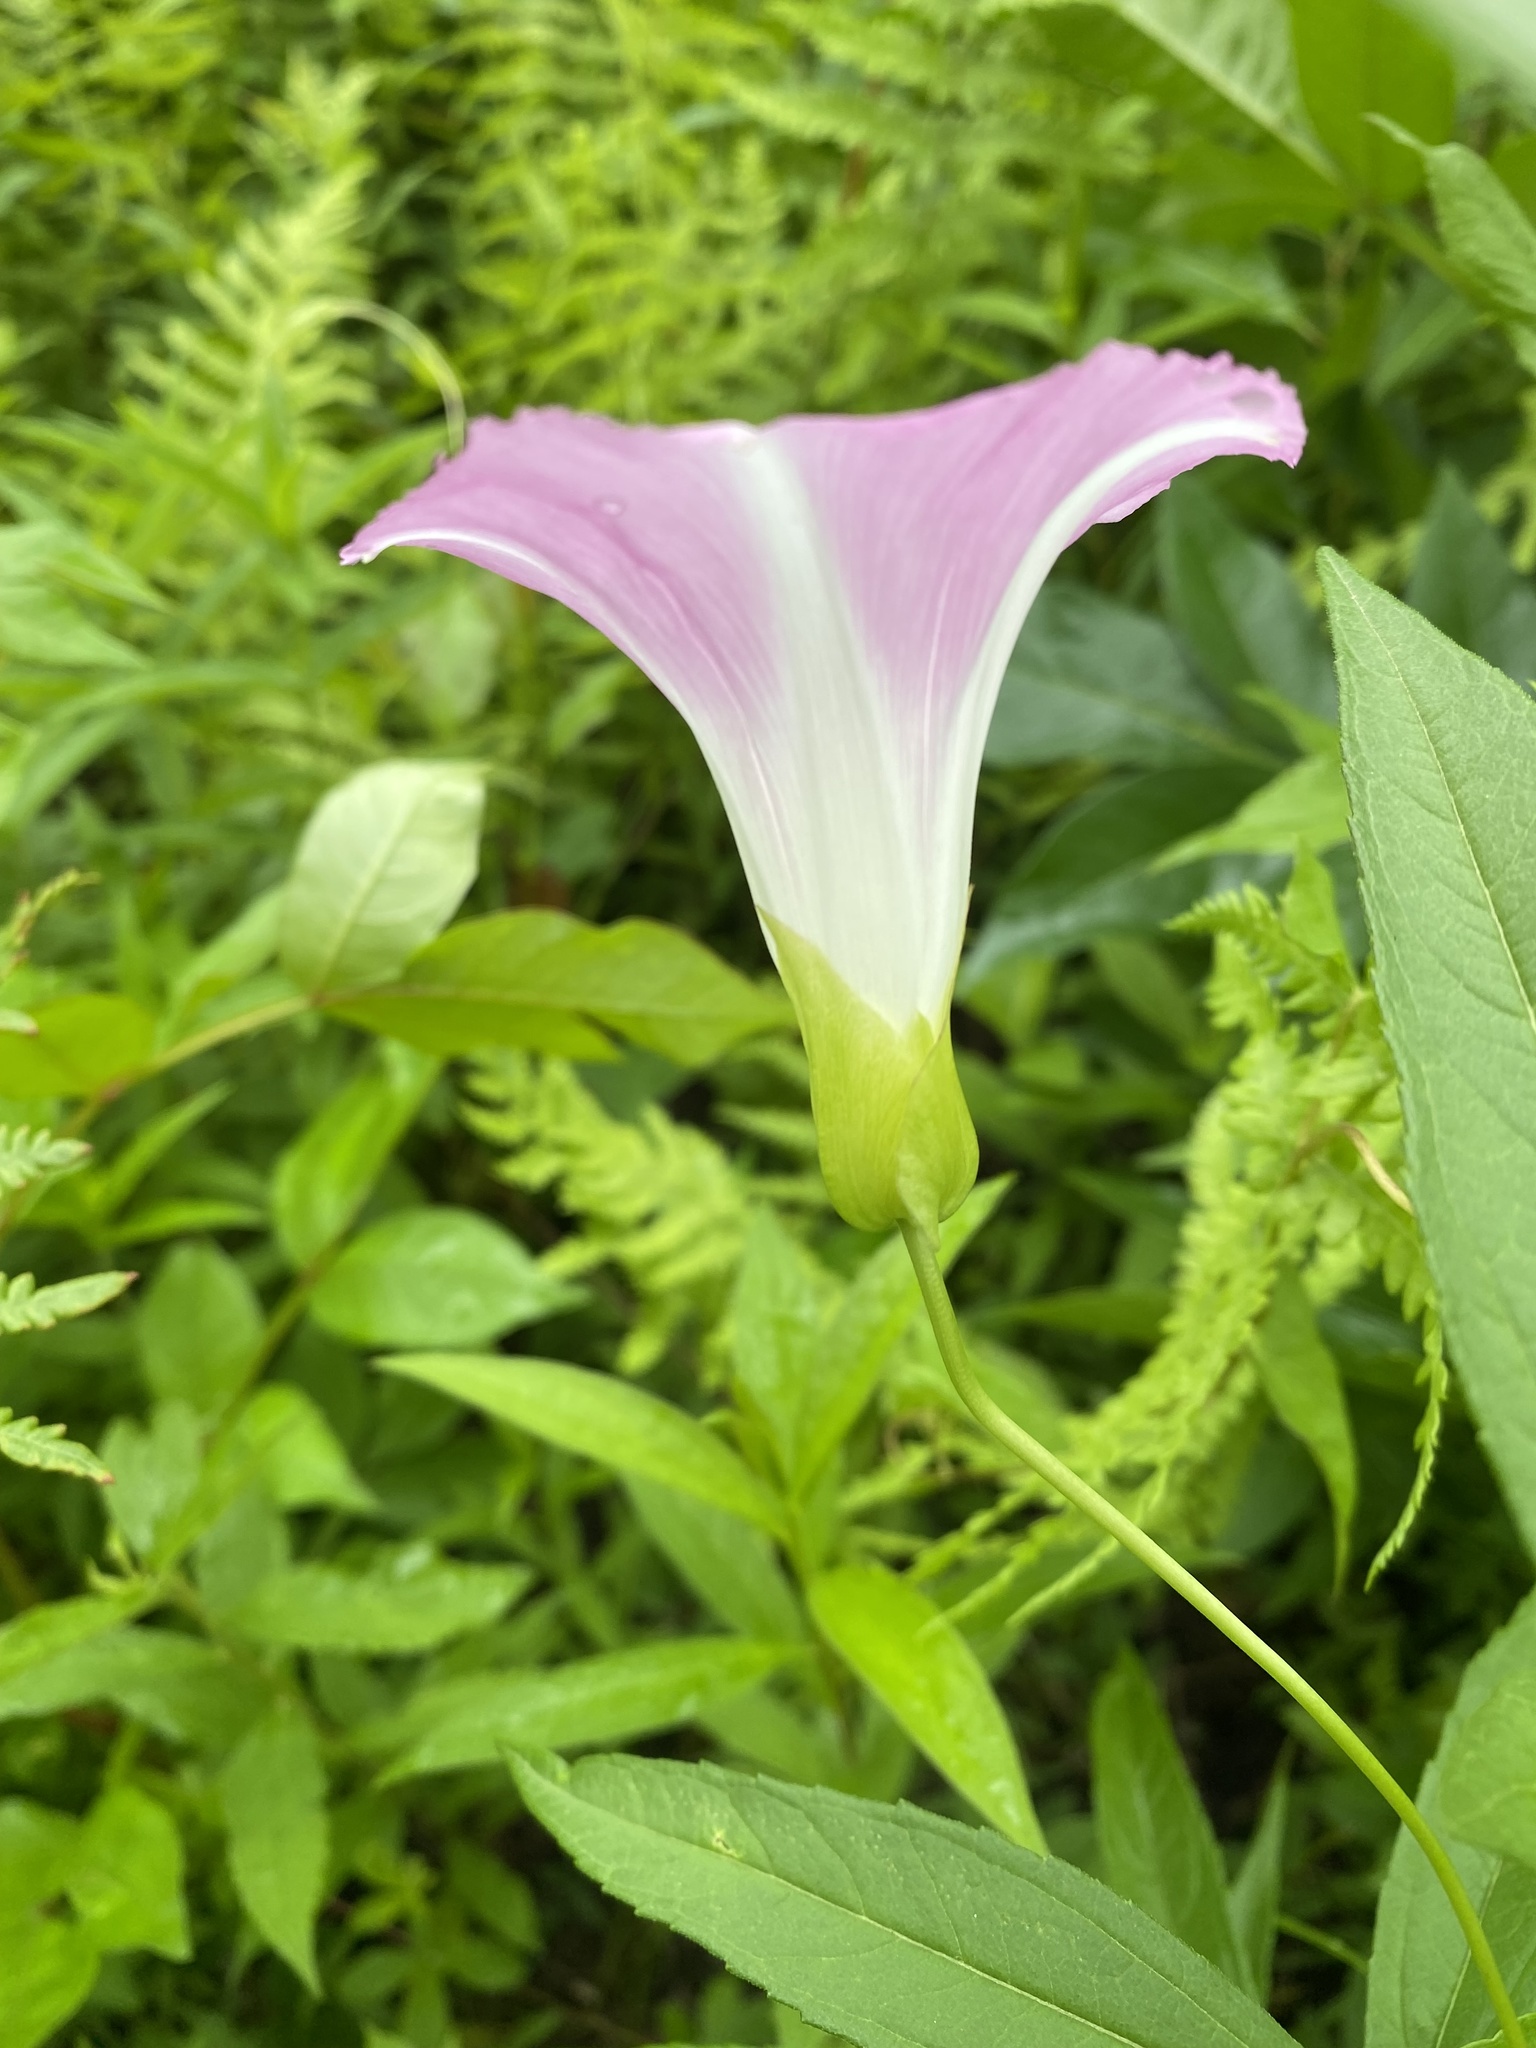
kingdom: Plantae
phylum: Tracheophyta
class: Magnoliopsida
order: Solanales
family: Convolvulaceae
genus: Calystegia
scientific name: Calystegia sepium
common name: Hedge bindweed
